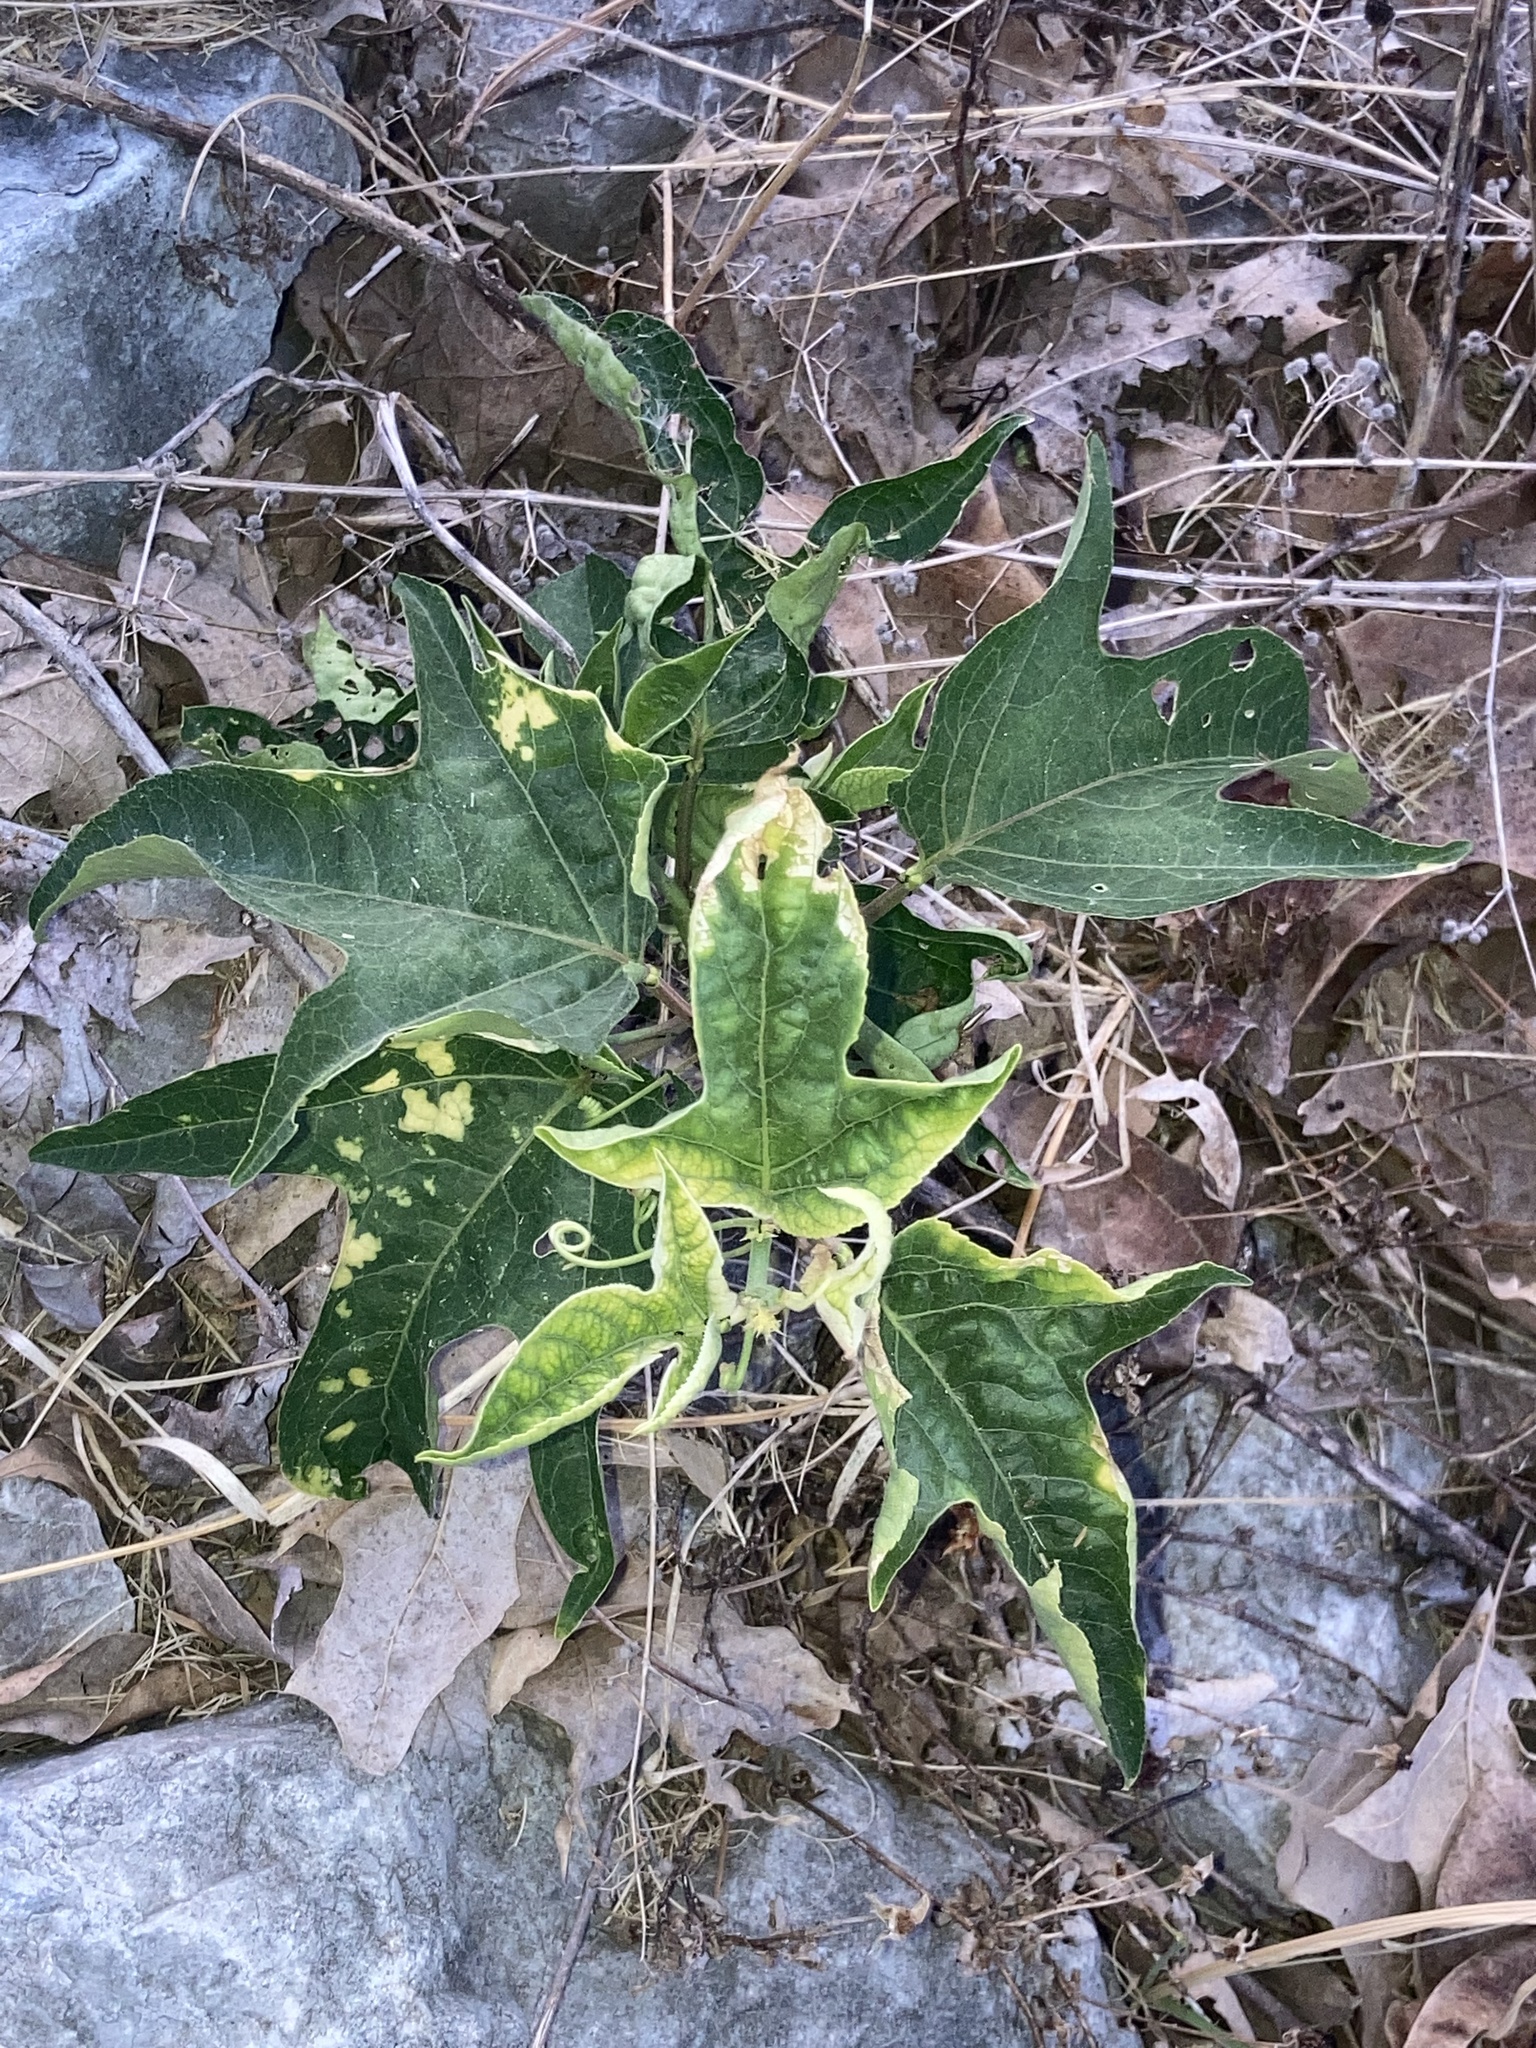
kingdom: Plantae
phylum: Tracheophyta
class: Magnoliopsida
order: Malpighiales
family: Passifloraceae
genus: Passiflora
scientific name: Passiflora incarnata
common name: Apricot-vine
